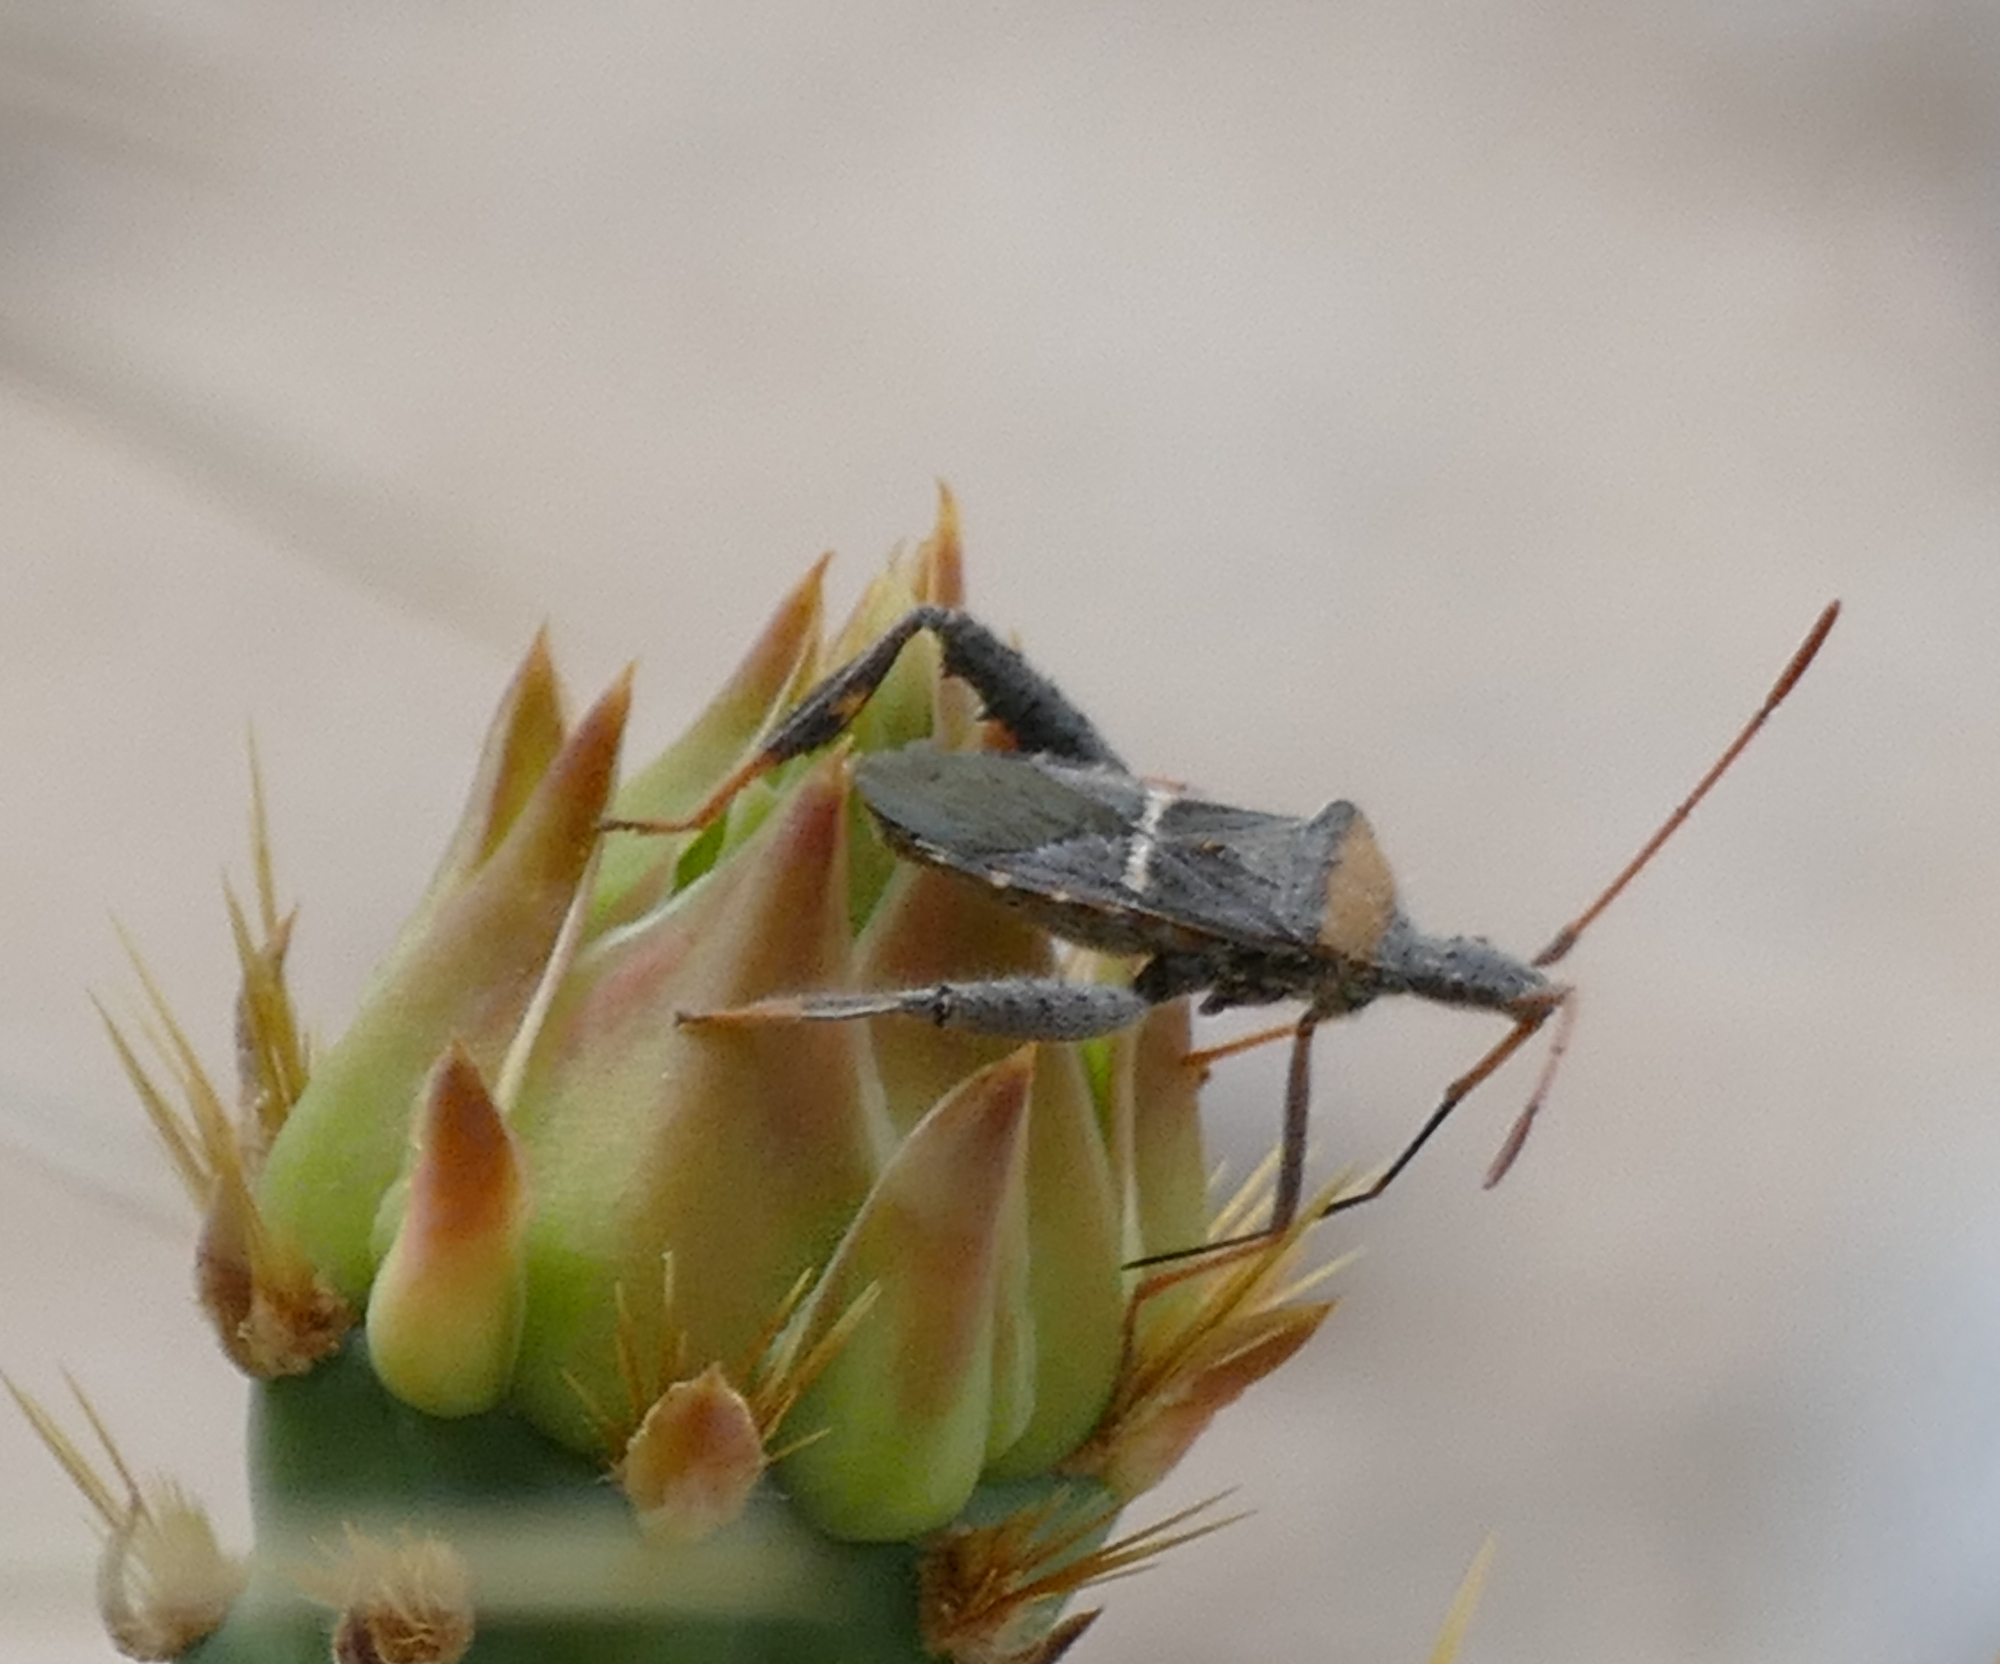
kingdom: Animalia
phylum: Arthropoda
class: Insecta
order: Hemiptera
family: Coreidae
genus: Narnia
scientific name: Narnia snowi
